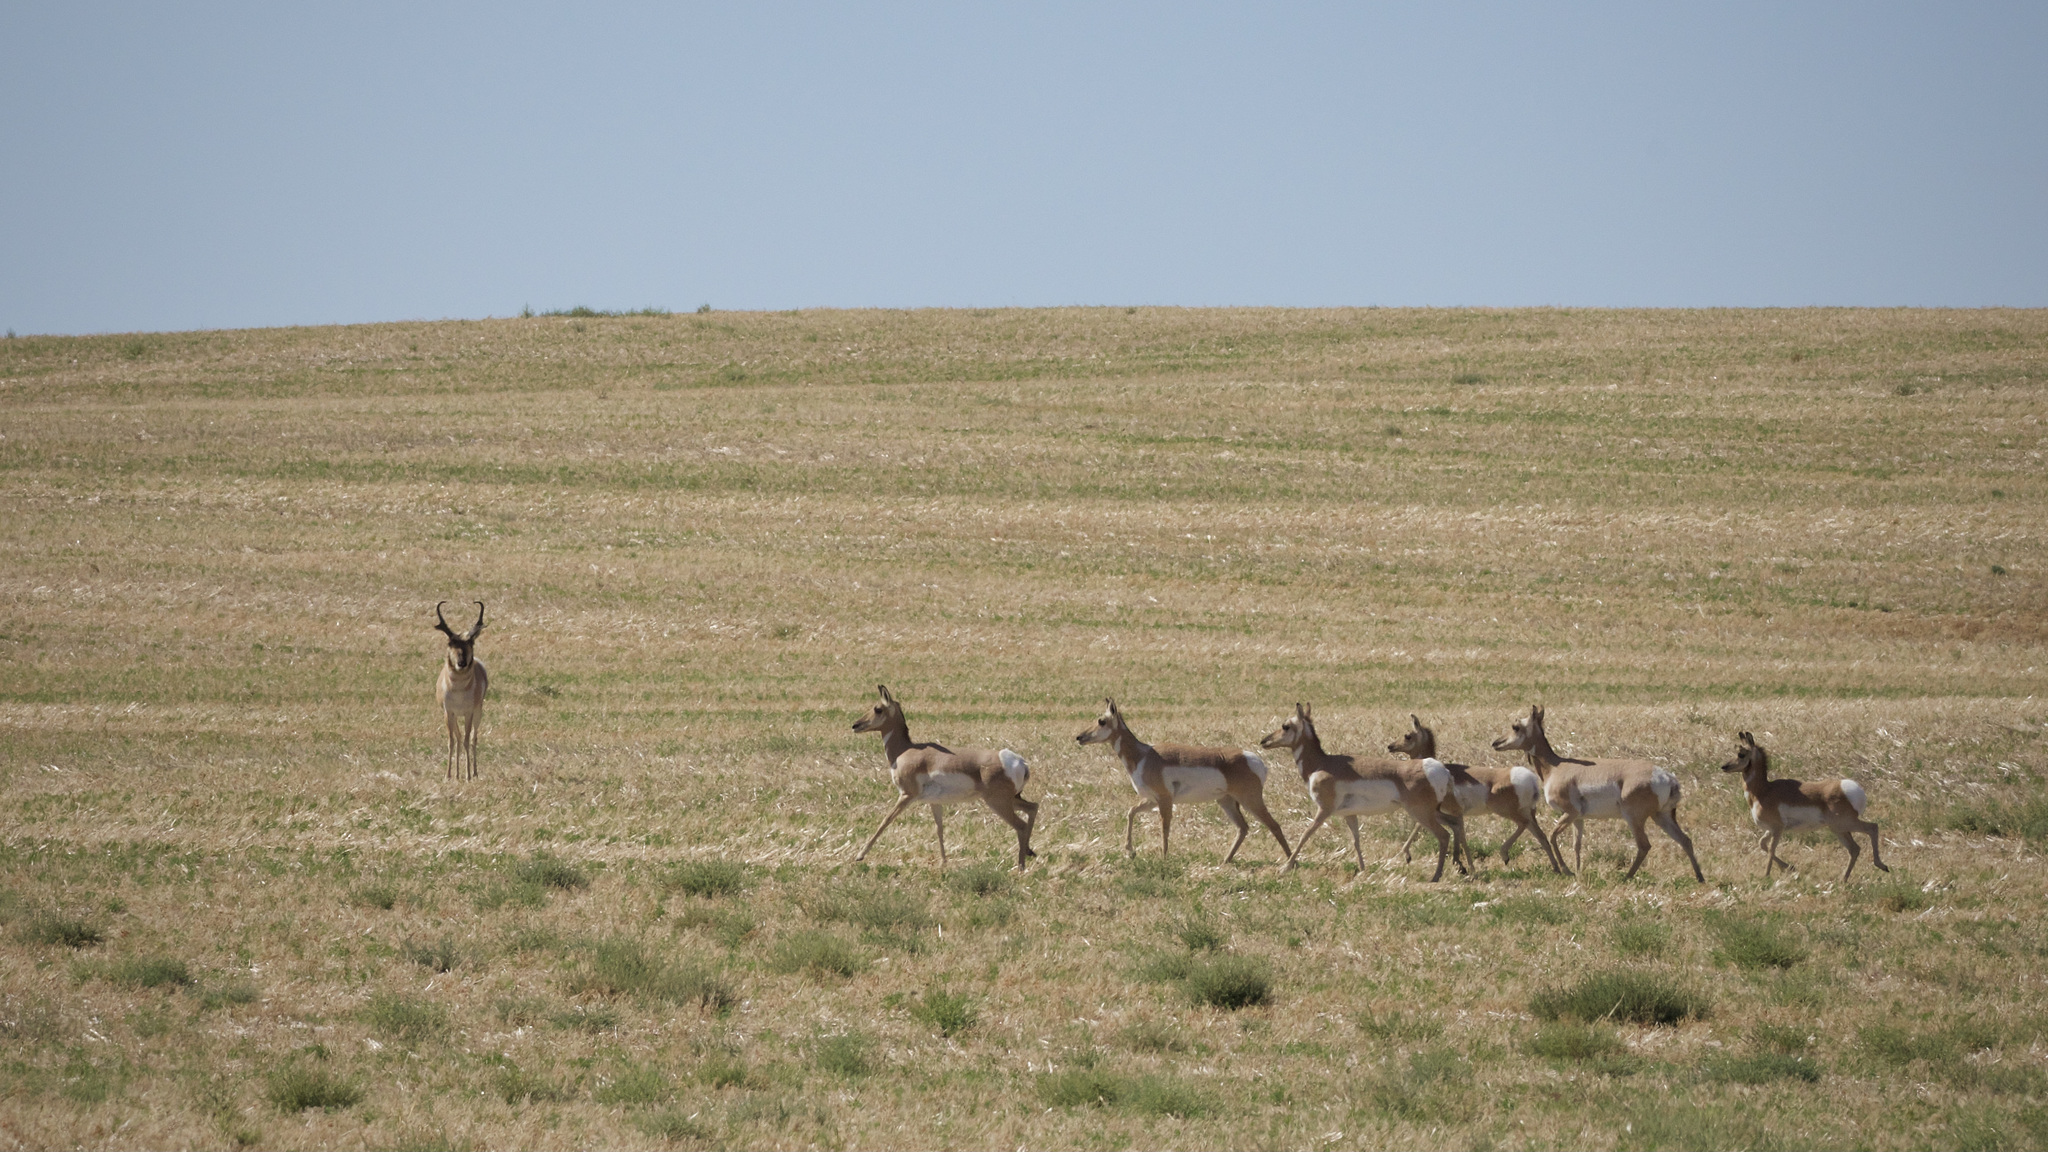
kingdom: Animalia
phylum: Chordata
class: Mammalia
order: Artiodactyla
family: Antilocapridae
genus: Antilocapra
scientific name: Antilocapra americana
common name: Pronghorn
